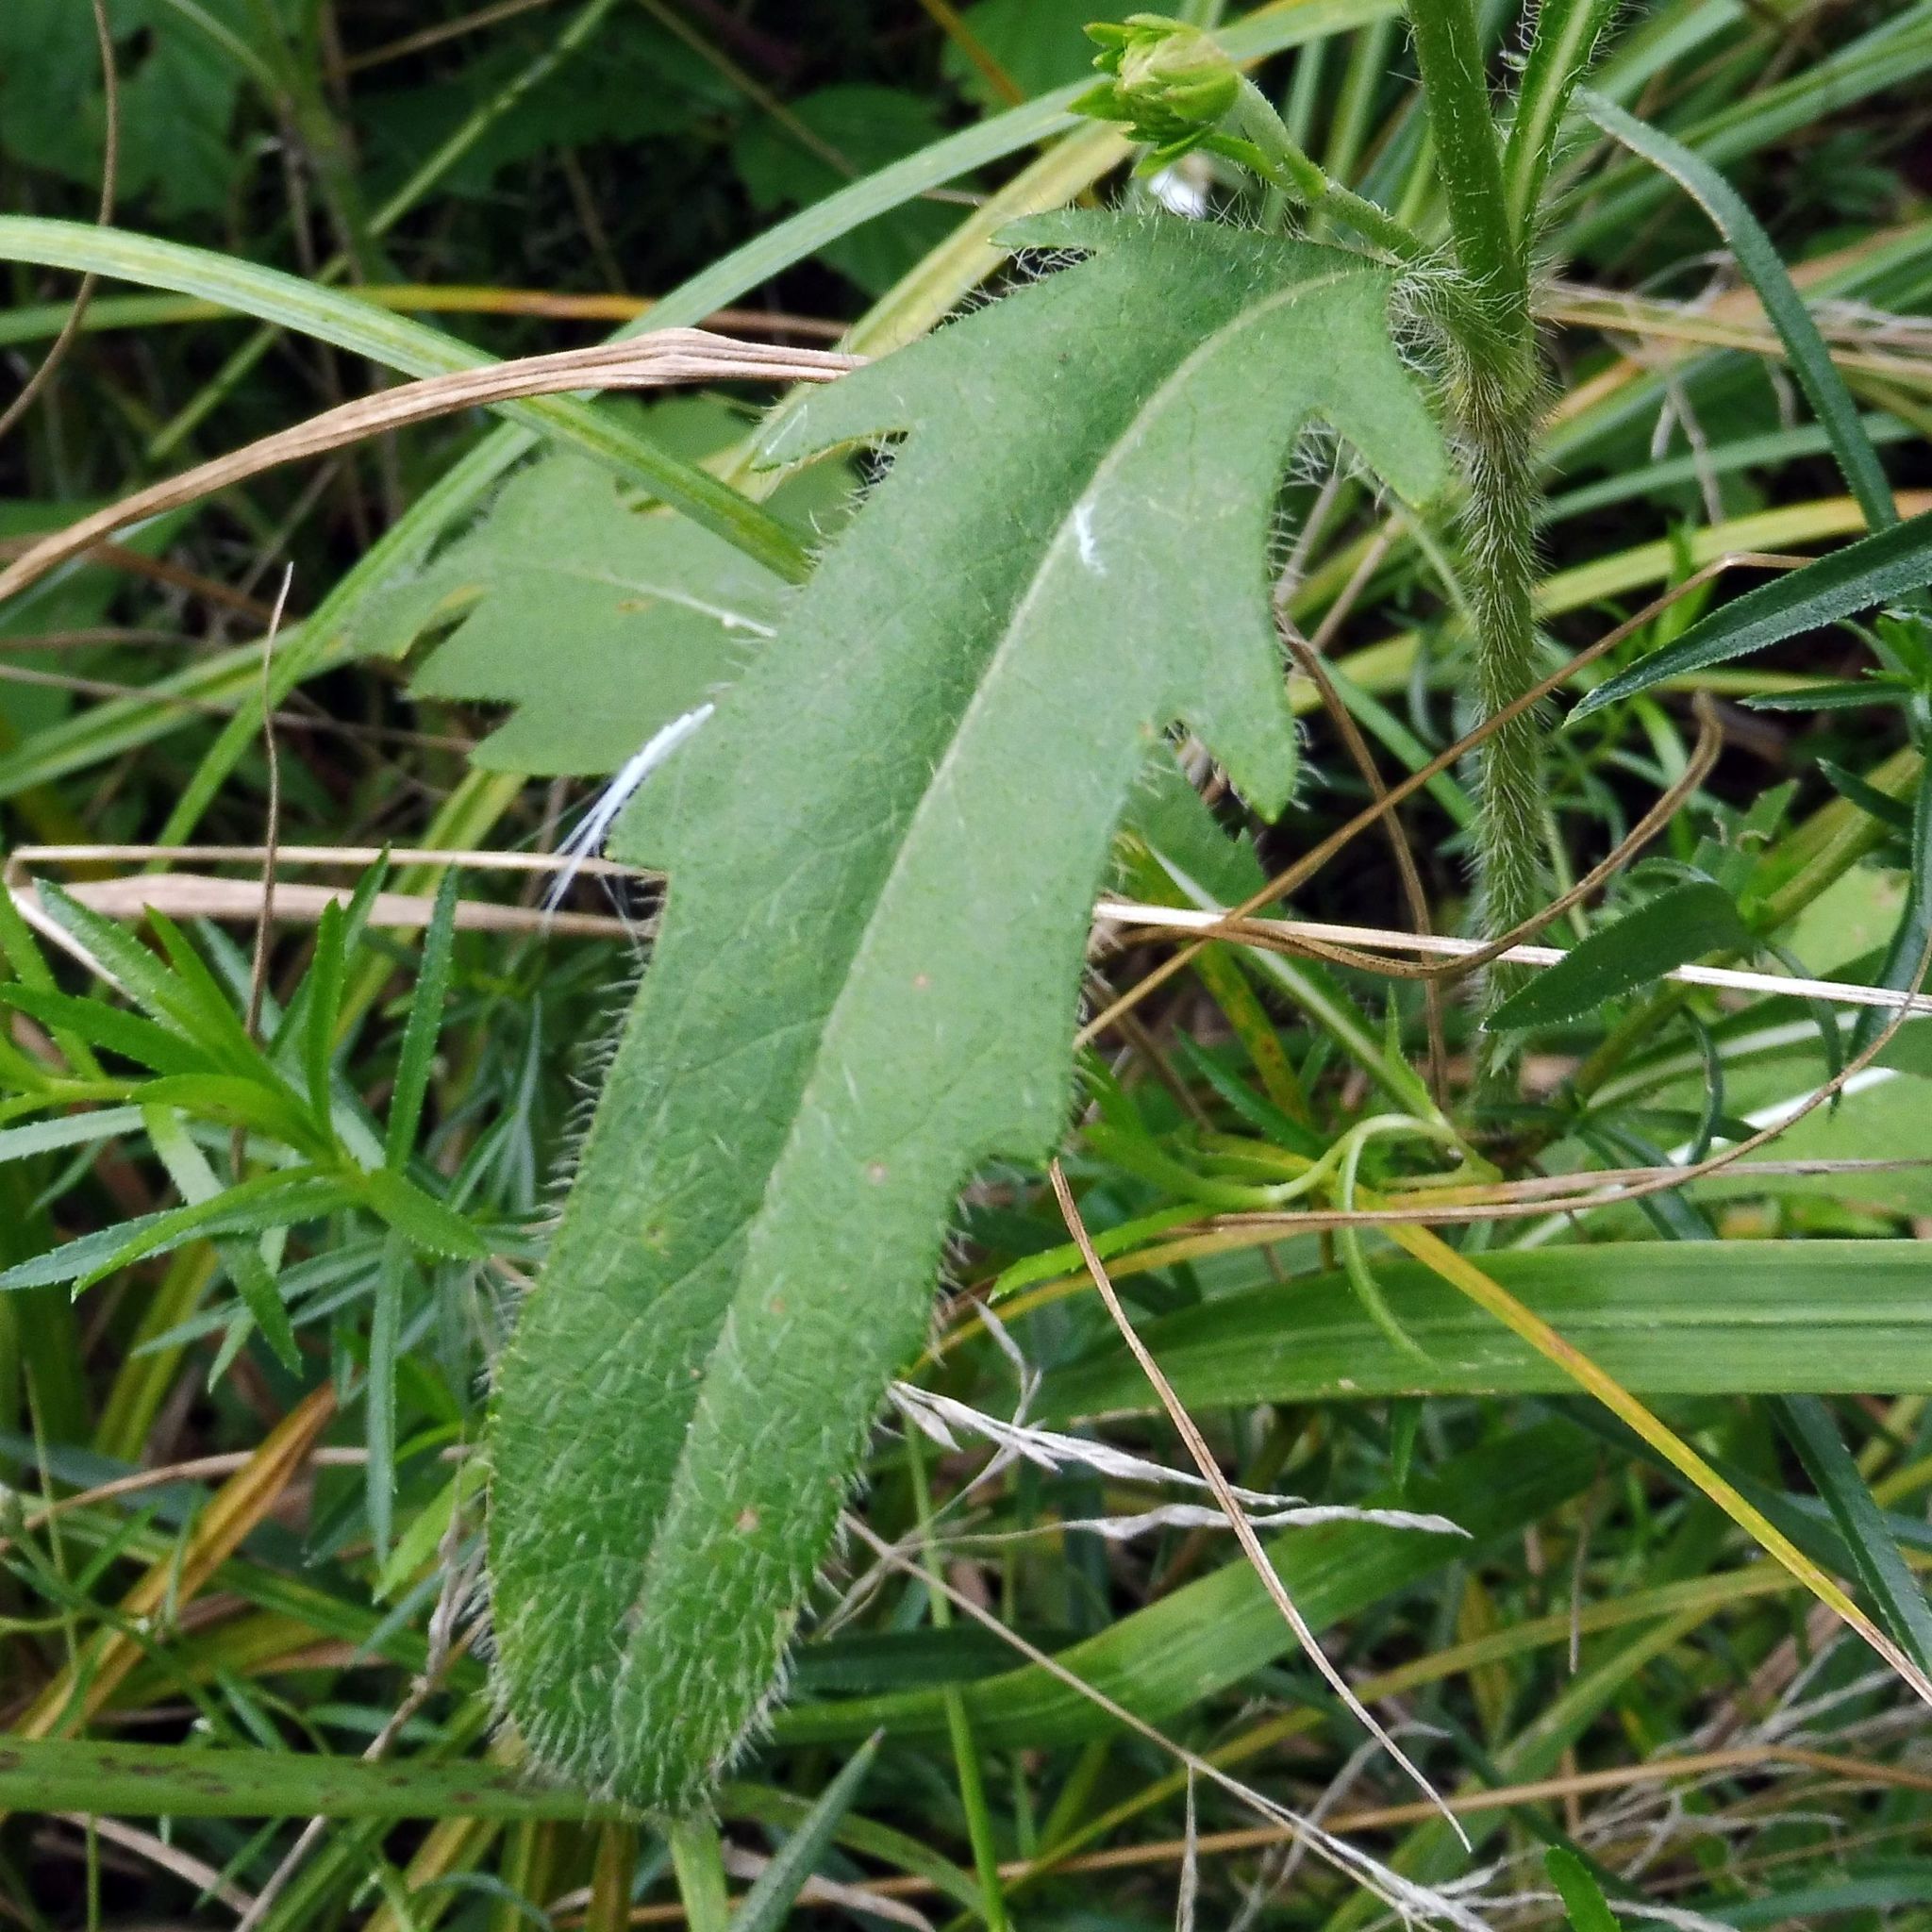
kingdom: Plantae
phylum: Tracheophyta
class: Magnoliopsida
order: Dipsacales
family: Caprifoliaceae
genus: Succisa
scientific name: Succisa pratensis
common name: Devil's-bit
